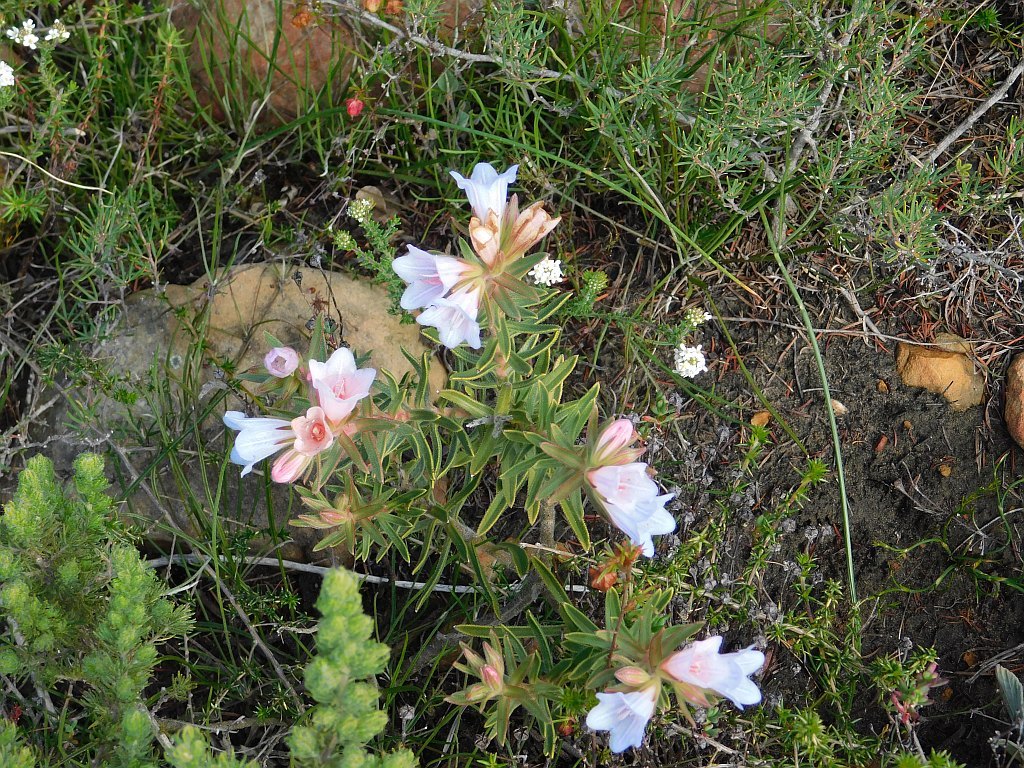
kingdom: Plantae
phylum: Tracheophyta
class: Magnoliopsida
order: Boraginales
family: Boraginaceae
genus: Lobostemon
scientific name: Lobostemon fruticosus
